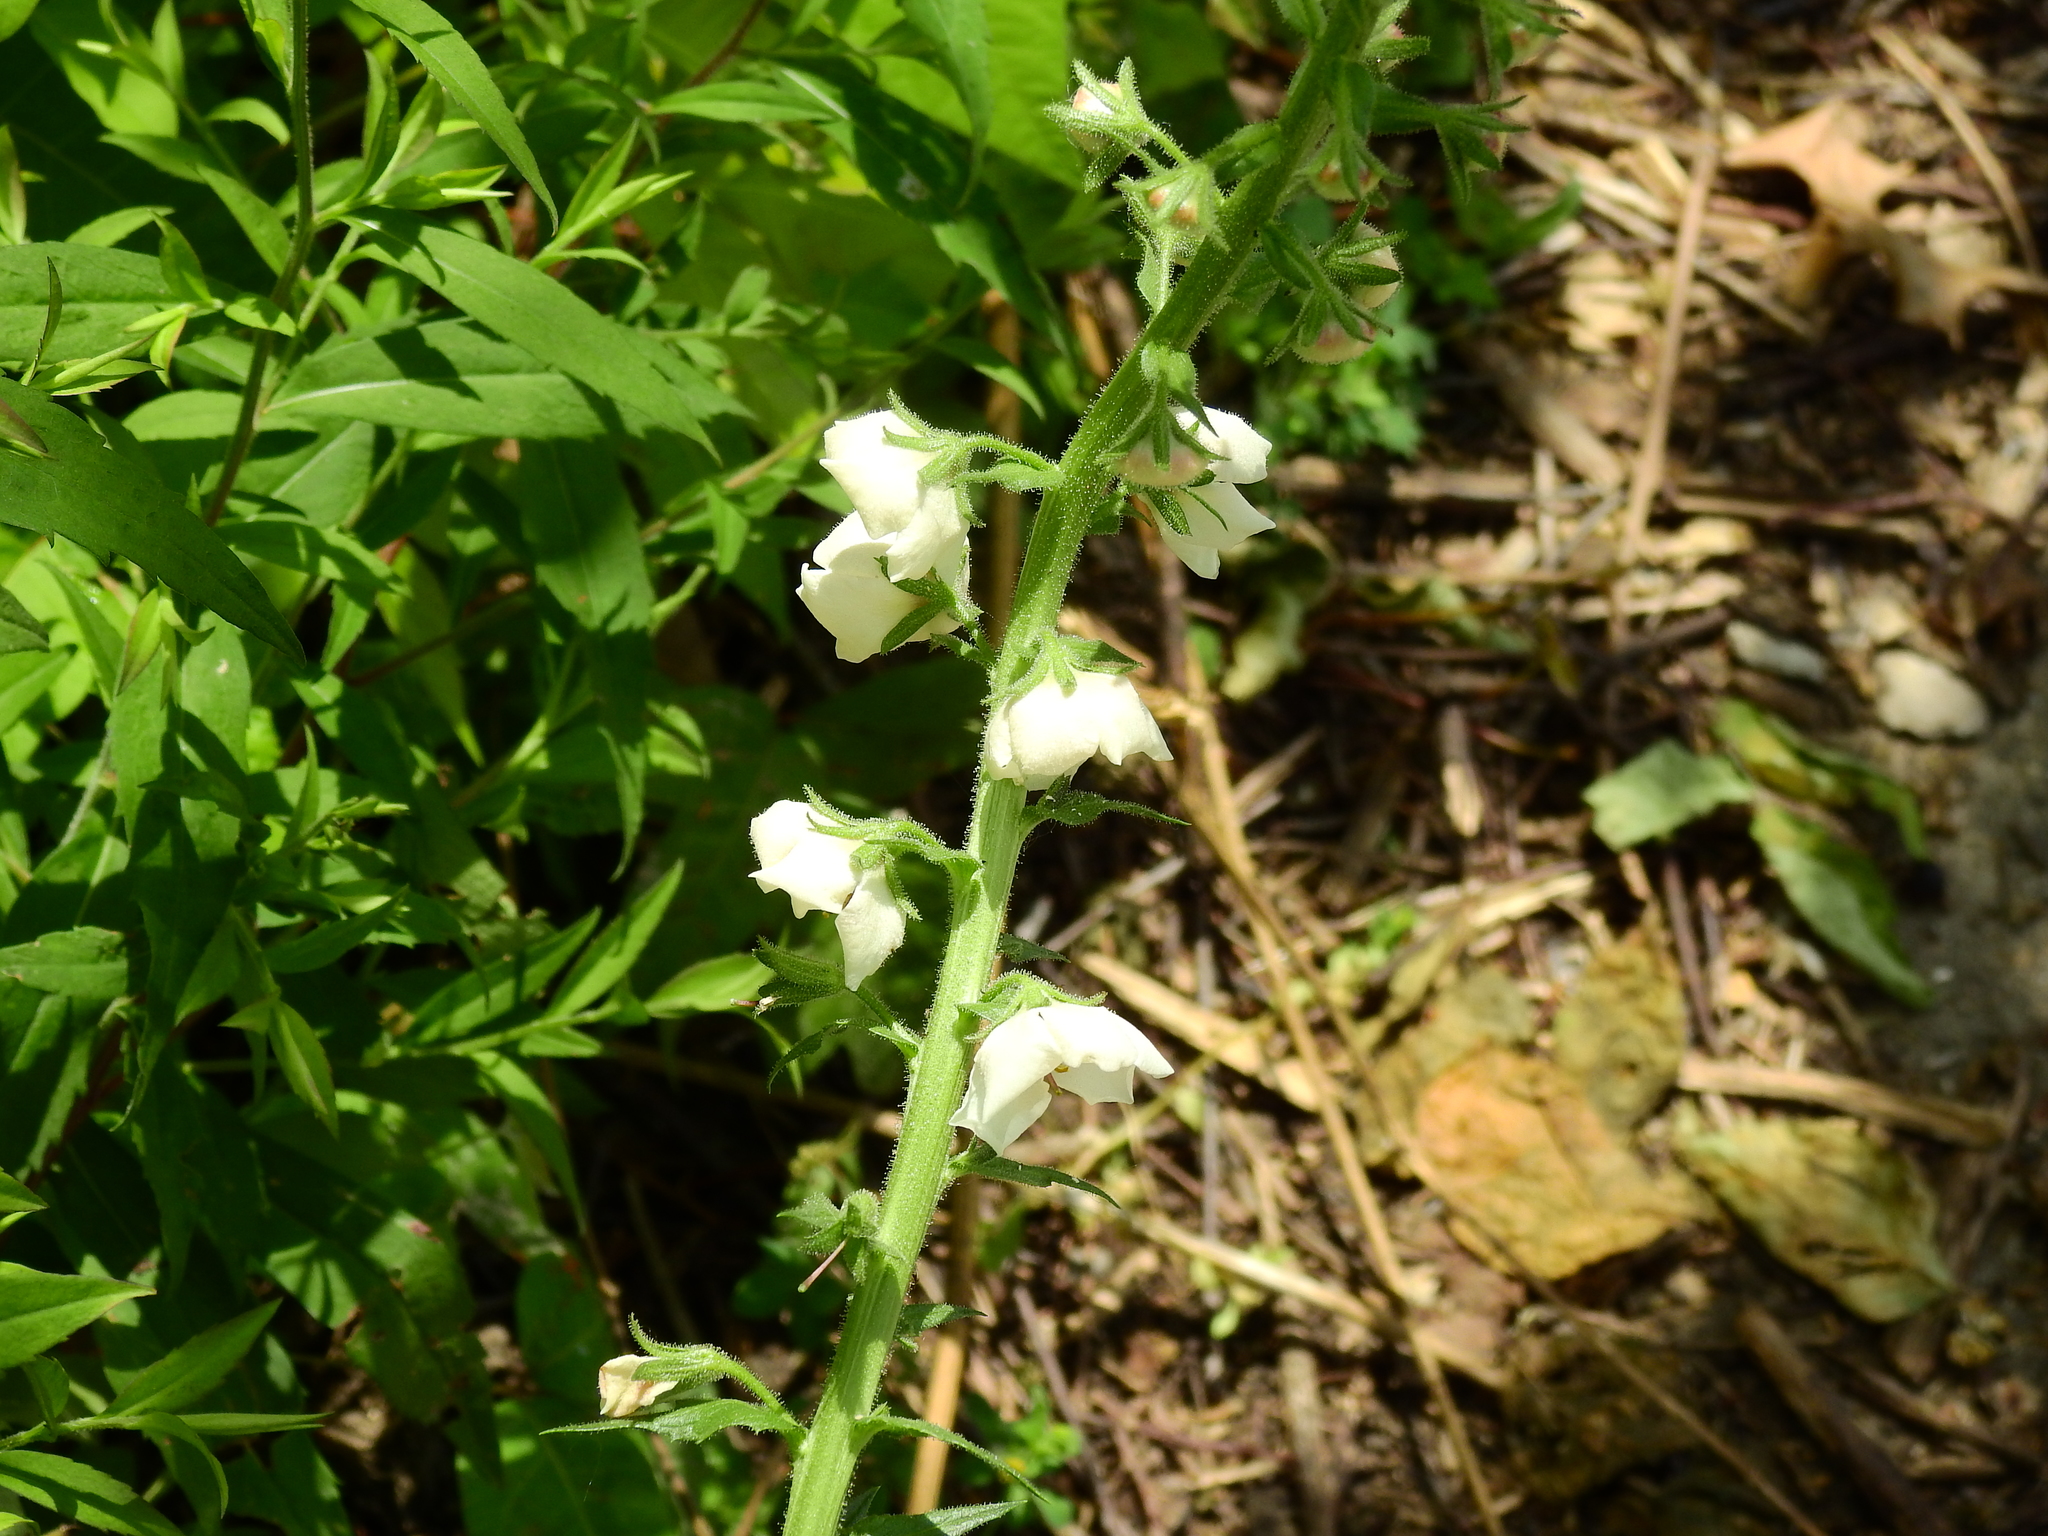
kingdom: Plantae
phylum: Tracheophyta
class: Magnoliopsida
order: Lamiales
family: Scrophulariaceae
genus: Verbascum
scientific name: Verbascum blattaria
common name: Moth mullein
